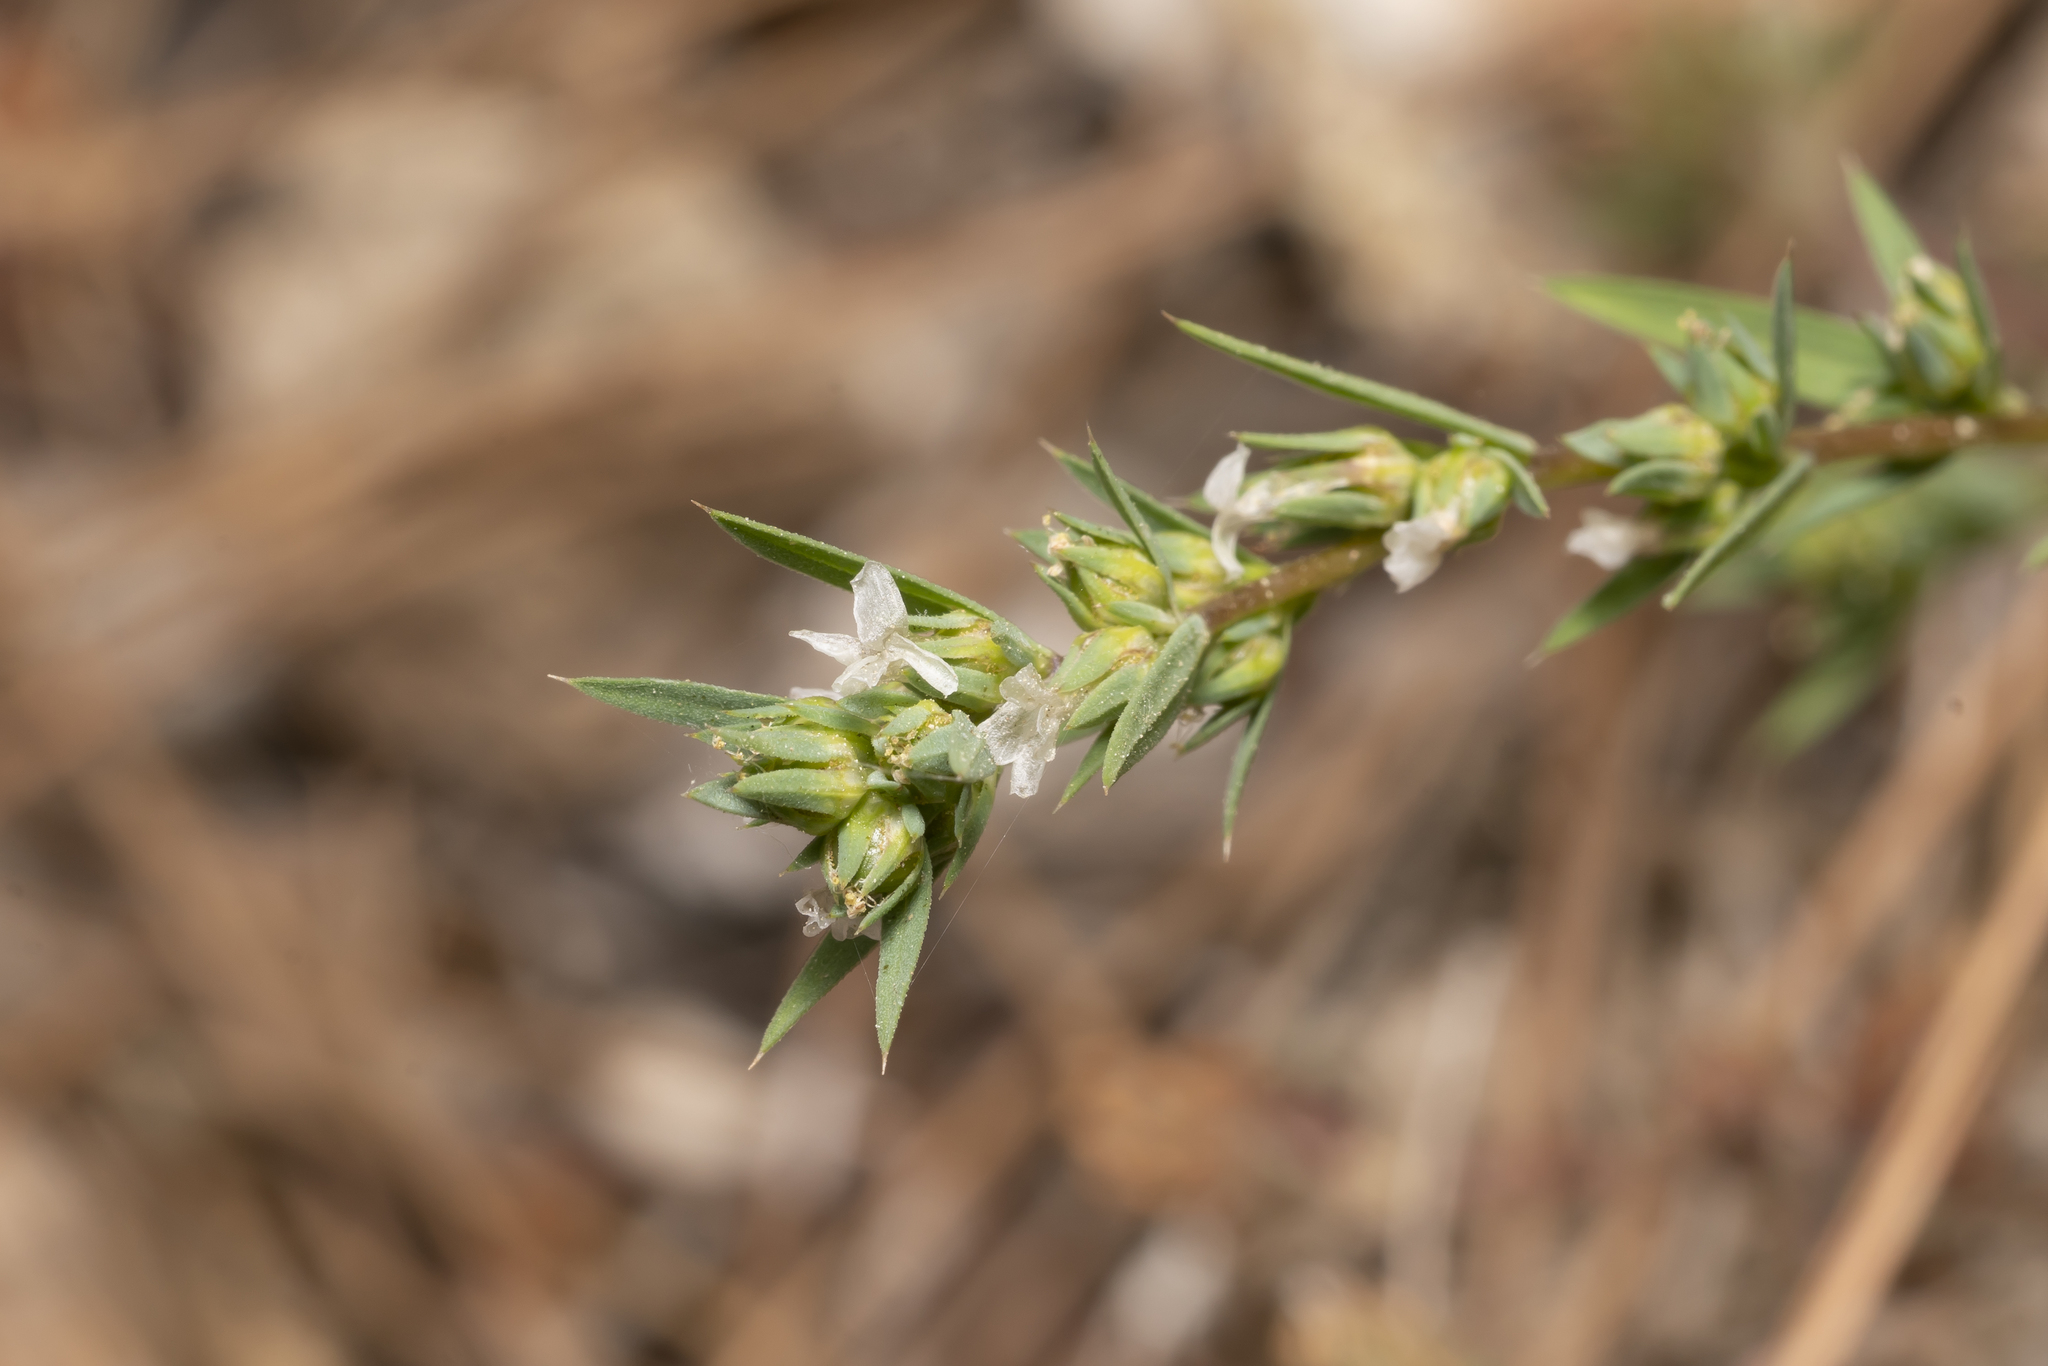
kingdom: Plantae
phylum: Tracheophyta
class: Magnoliopsida
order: Malpighiales
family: Linaceae
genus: Linum
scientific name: Linum strictum
